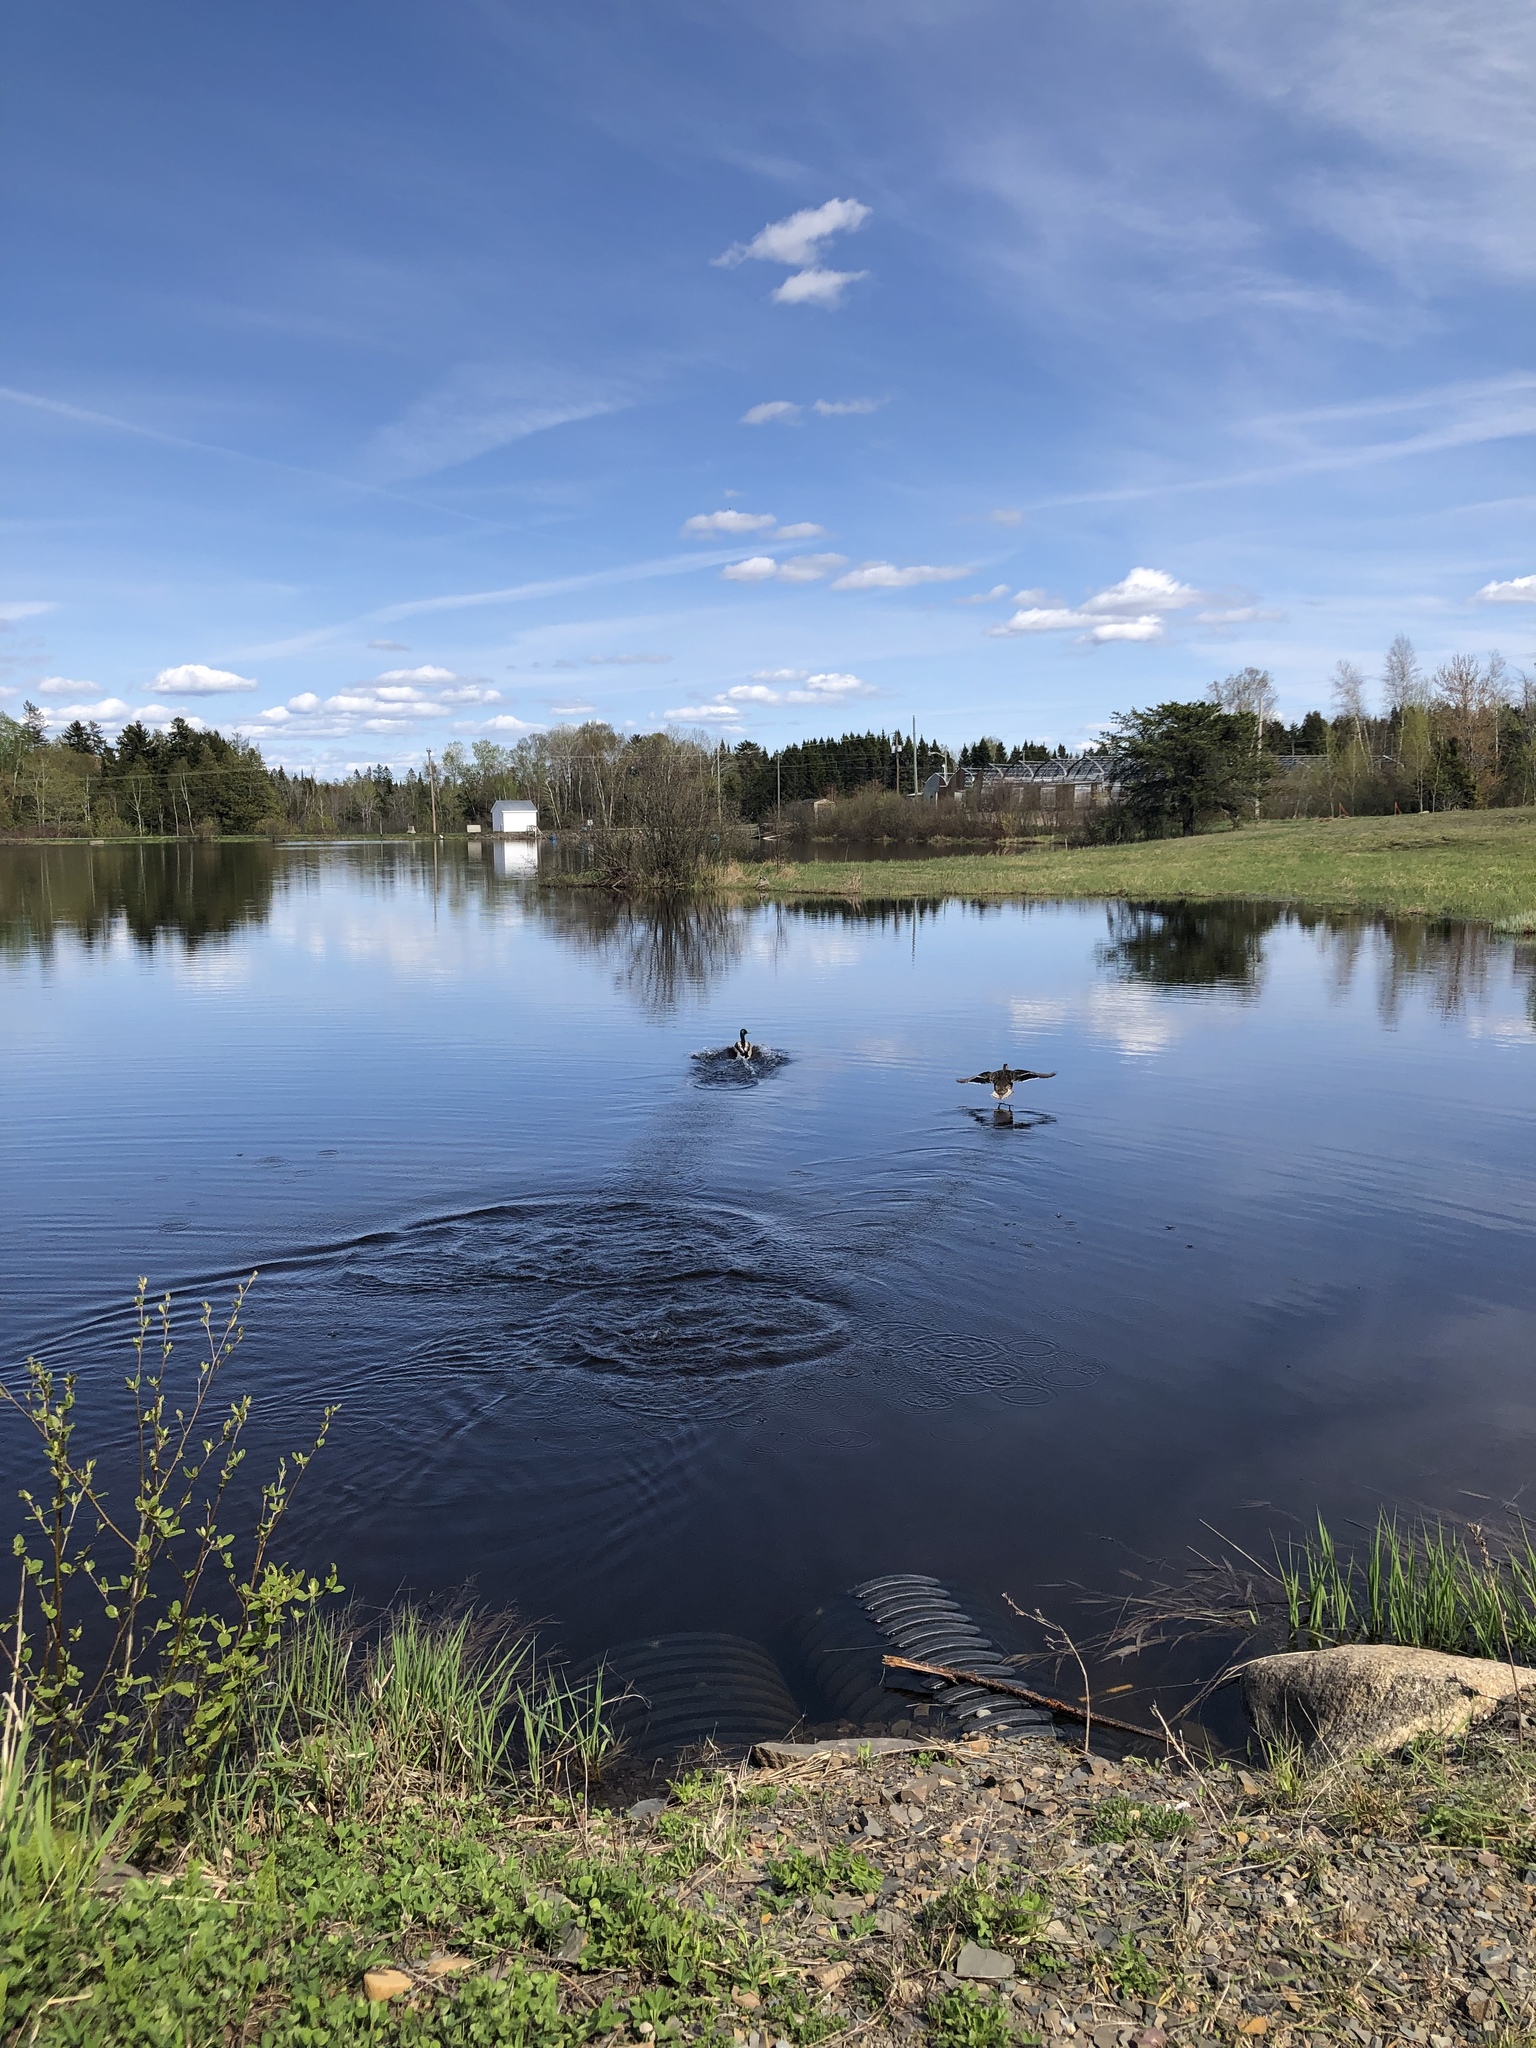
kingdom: Animalia
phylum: Chordata
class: Aves
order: Anseriformes
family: Anatidae
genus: Anas
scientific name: Anas platyrhynchos
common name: Mallard
